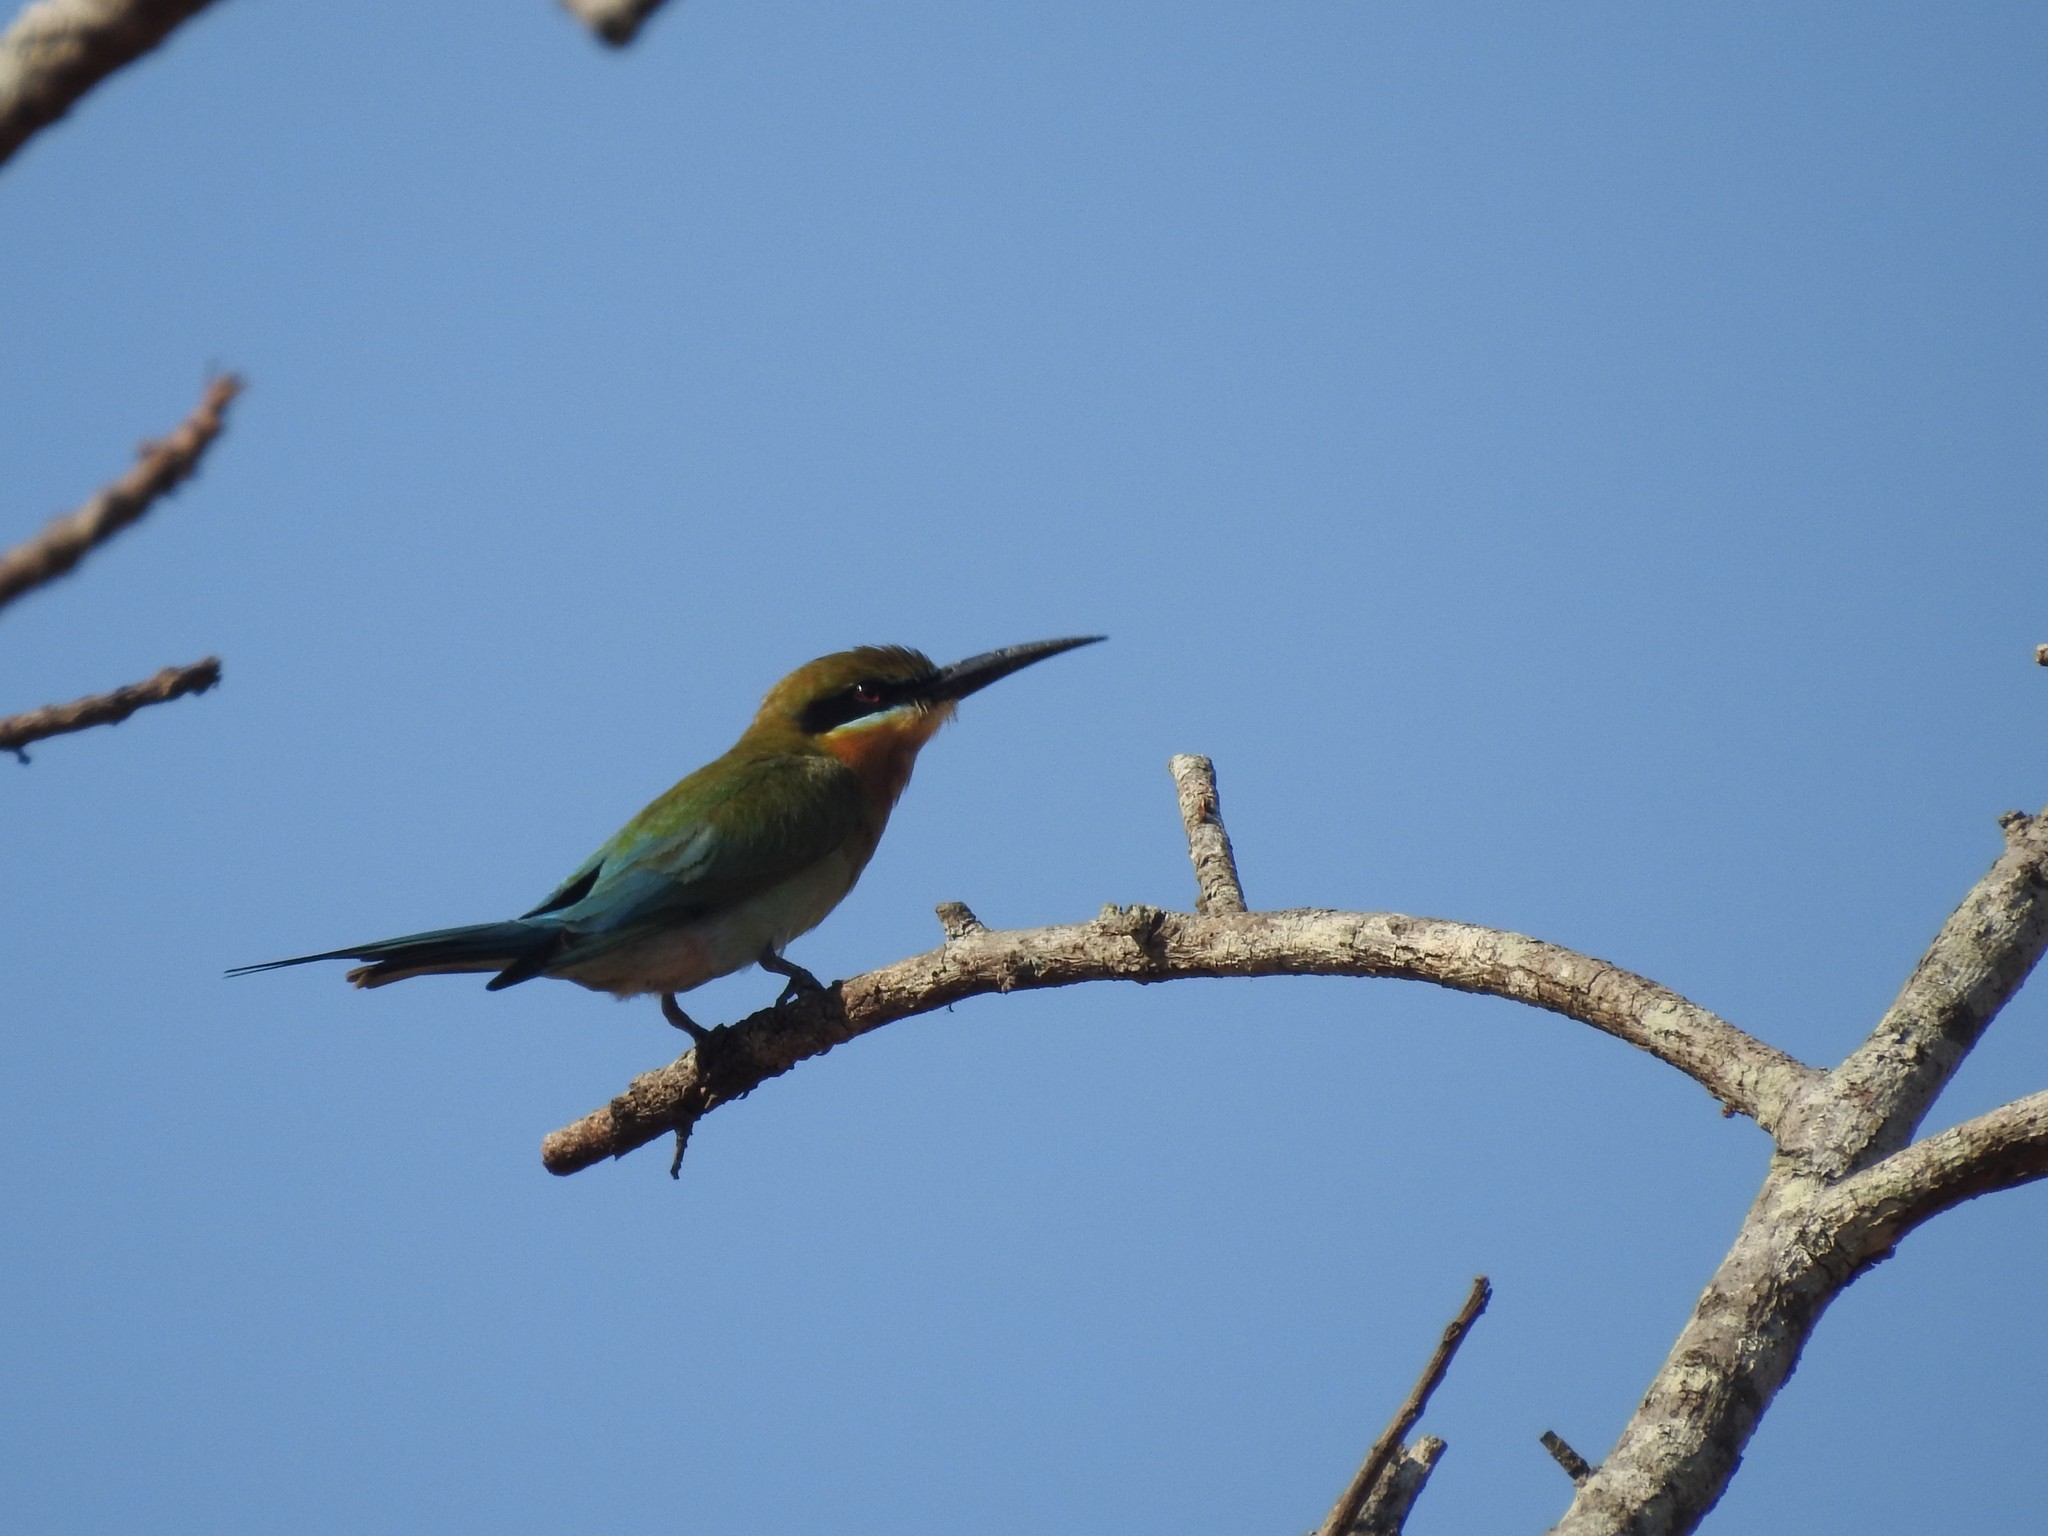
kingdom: Animalia
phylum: Chordata
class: Aves
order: Coraciiformes
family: Meropidae
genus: Merops
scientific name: Merops philippinus
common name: Blue-tailed bee-eater
